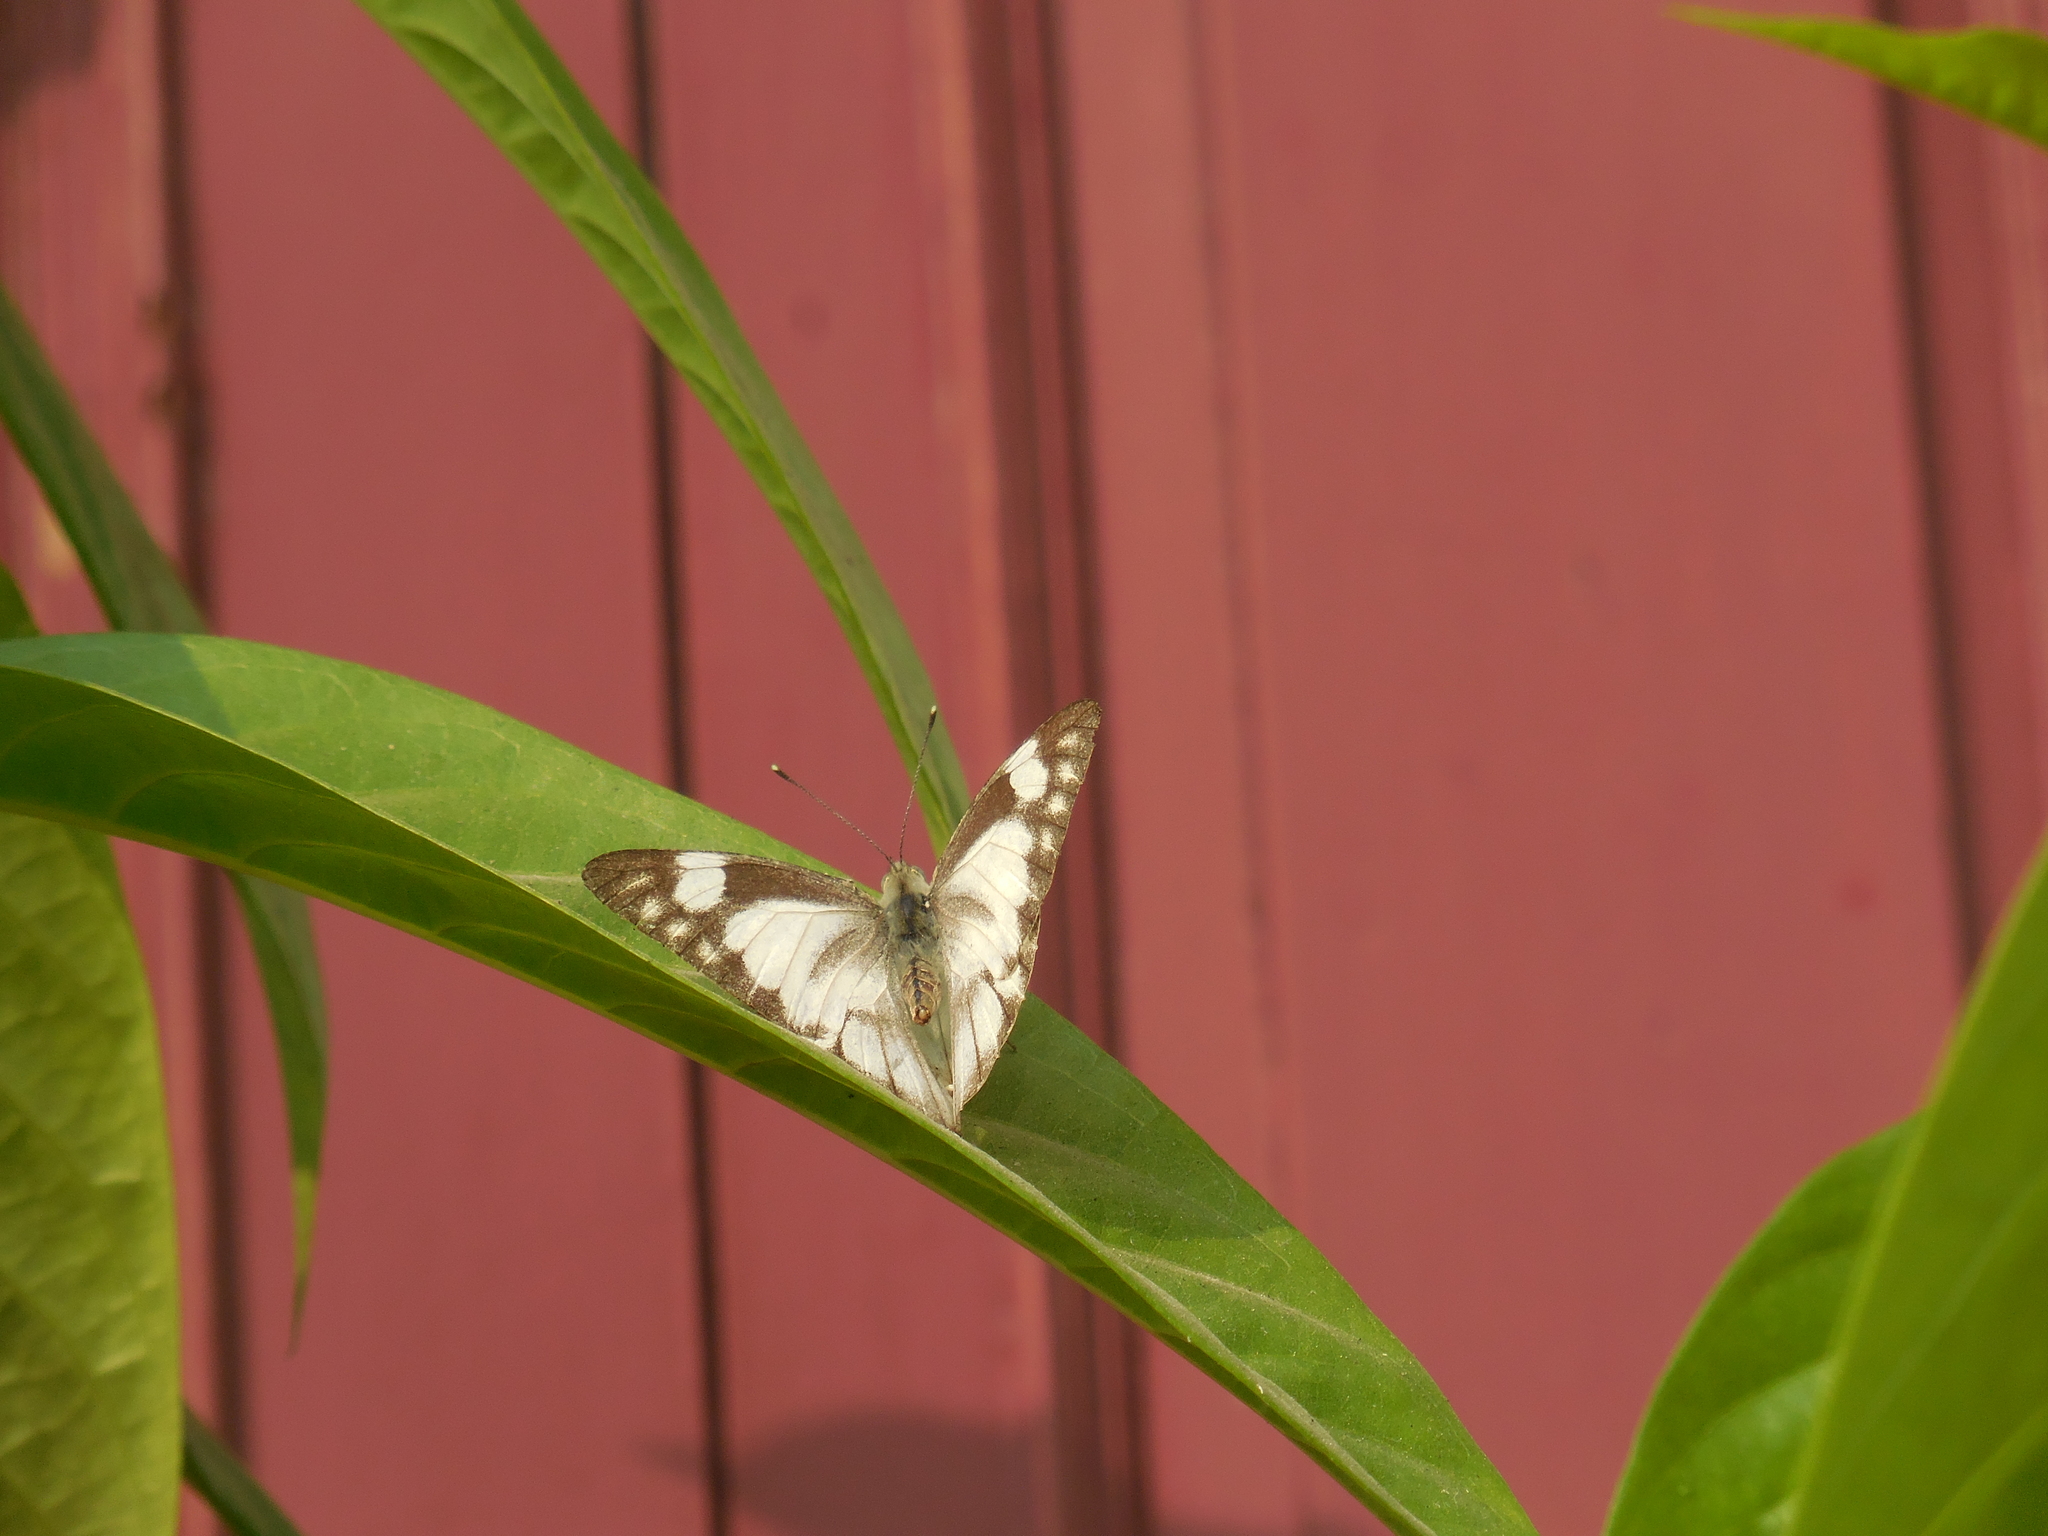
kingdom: Animalia
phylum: Arthropoda
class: Insecta
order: Lepidoptera
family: Pieridae
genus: Appias
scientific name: Appias libythea
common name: Striped albatross
